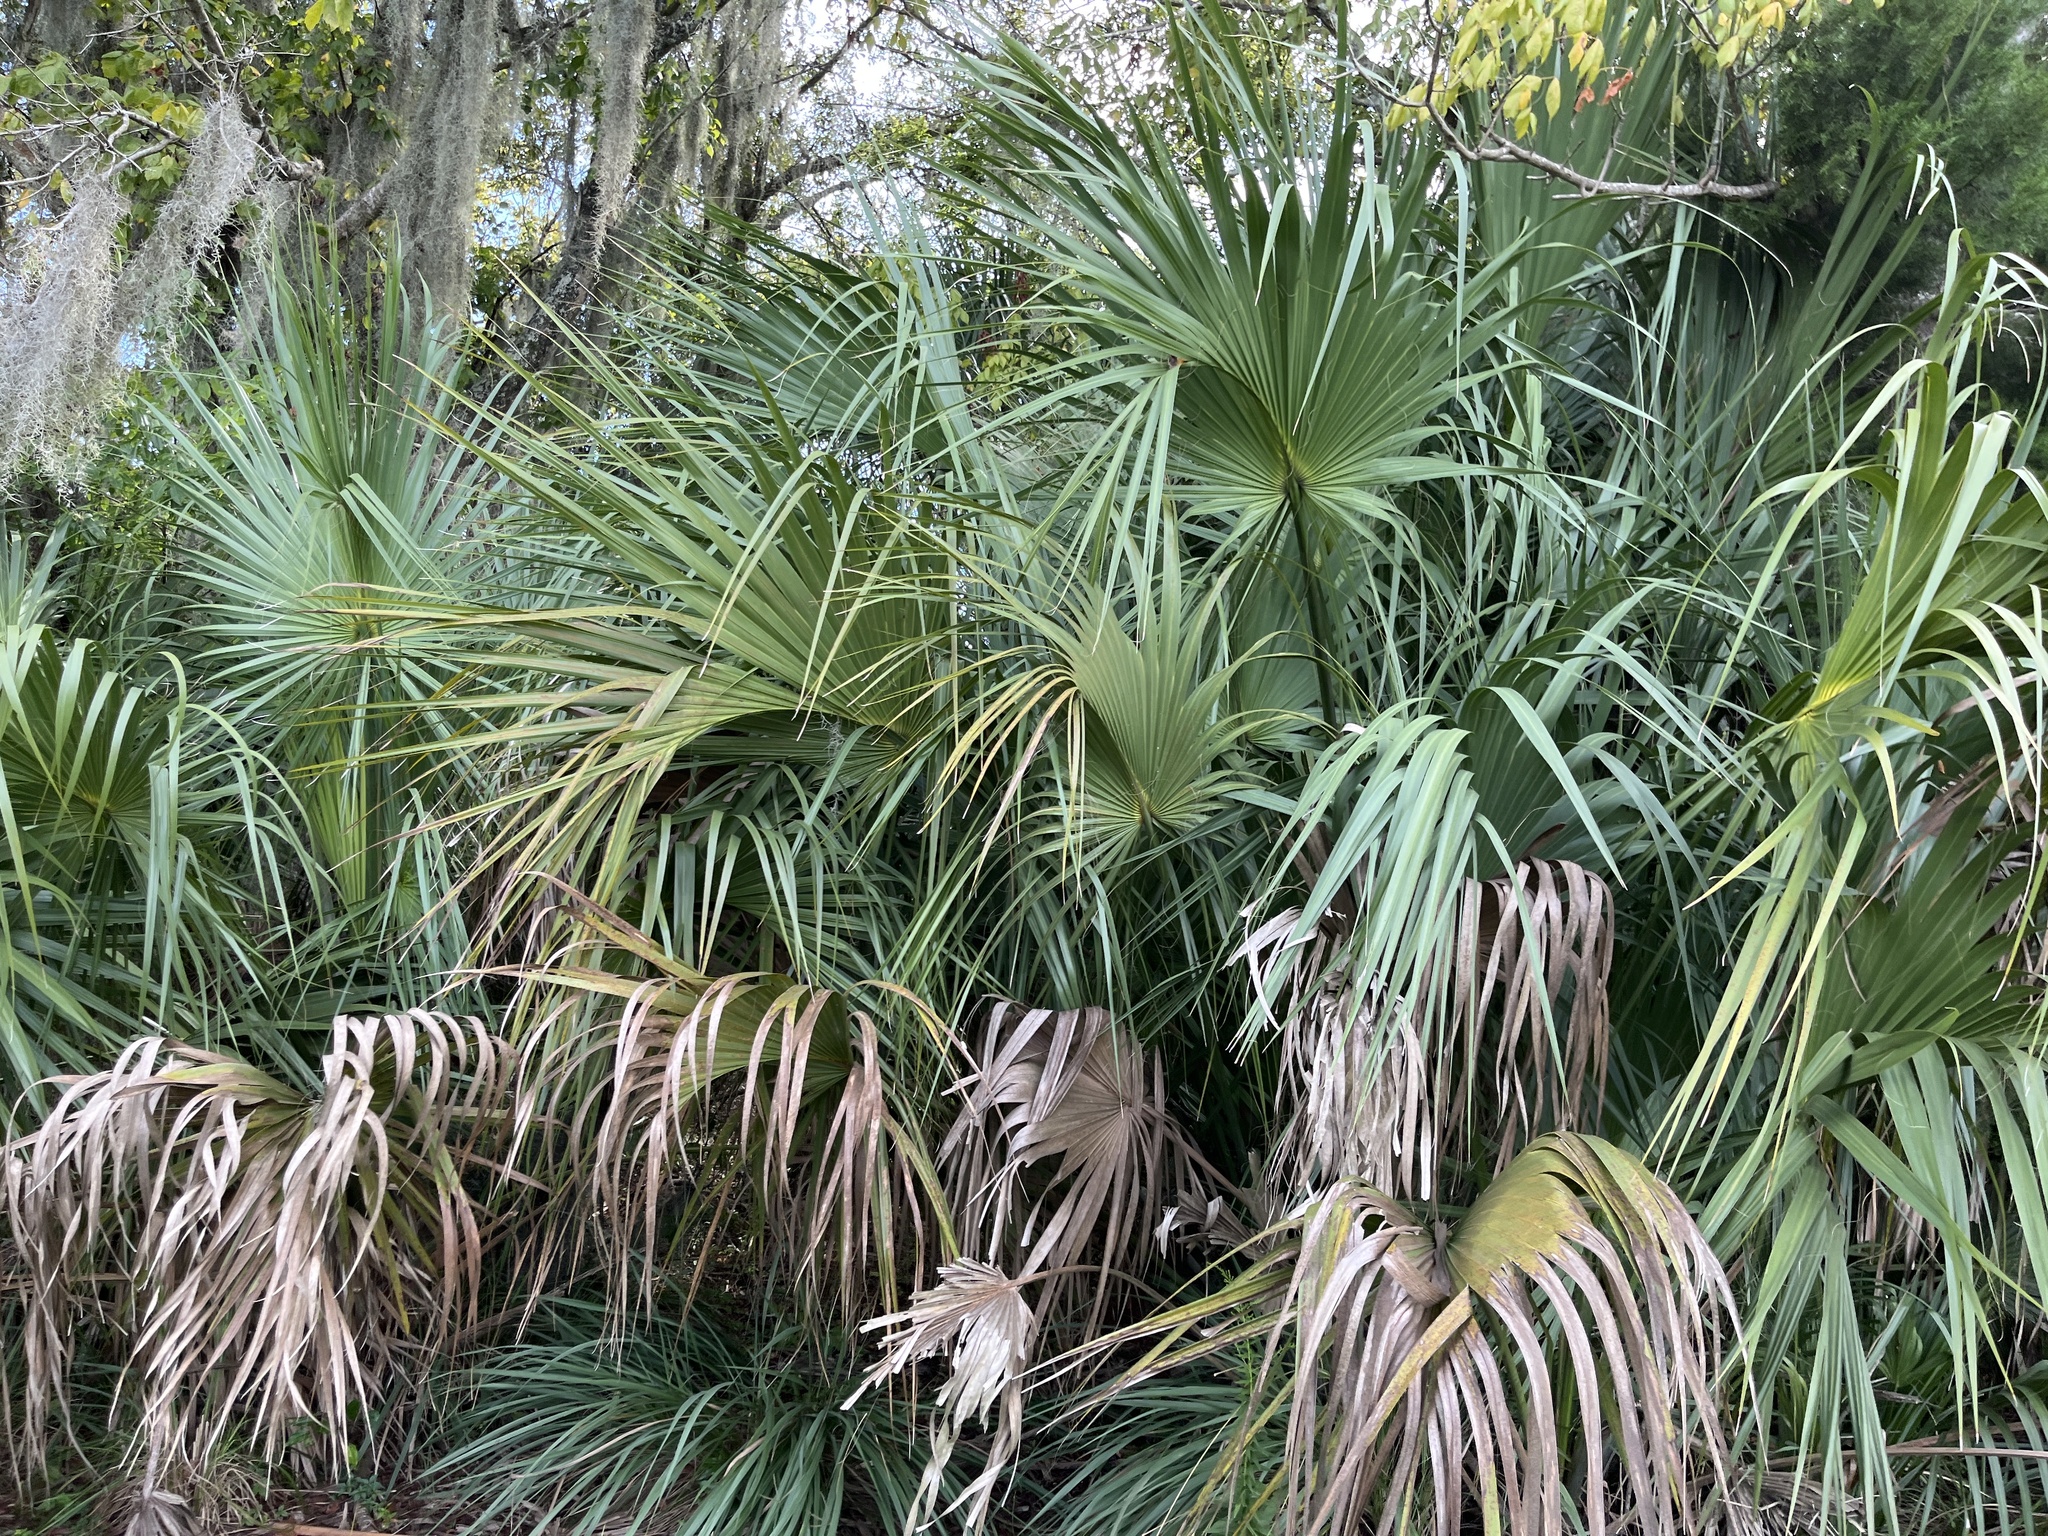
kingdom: Plantae
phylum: Tracheophyta
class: Liliopsida
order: Arecales
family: Arecaceae
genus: Sabal
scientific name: Sabal palmetto
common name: Blue palmetto
